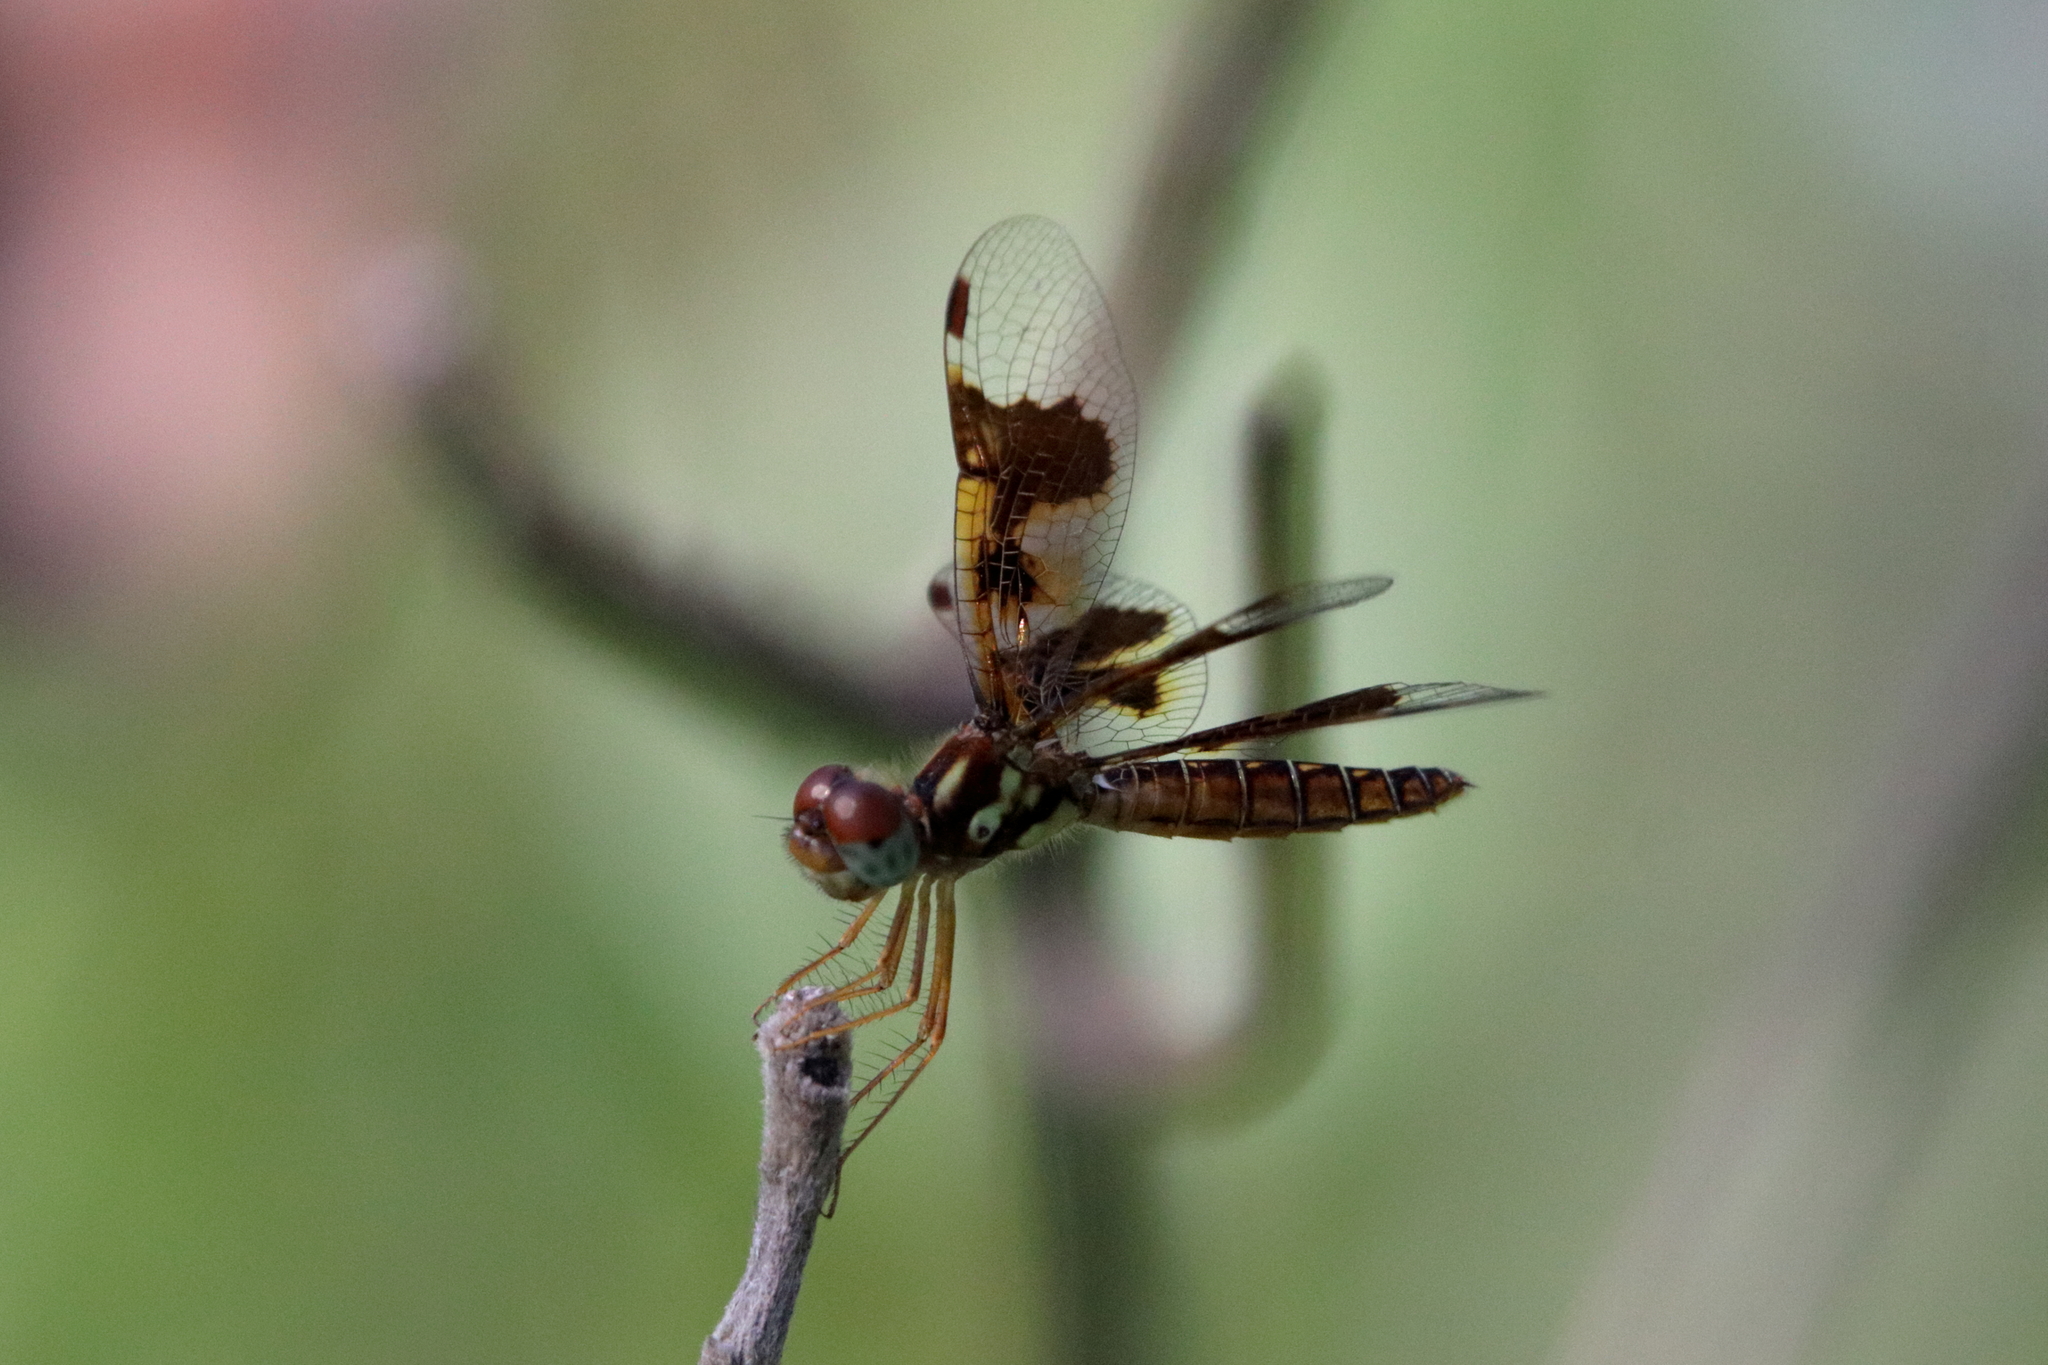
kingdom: Animalia
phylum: Arthropoda
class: Insecta
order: Odonata
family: Libellulidae
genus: Perithemis
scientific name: Perithemis tenera
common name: Eastern amberwing
